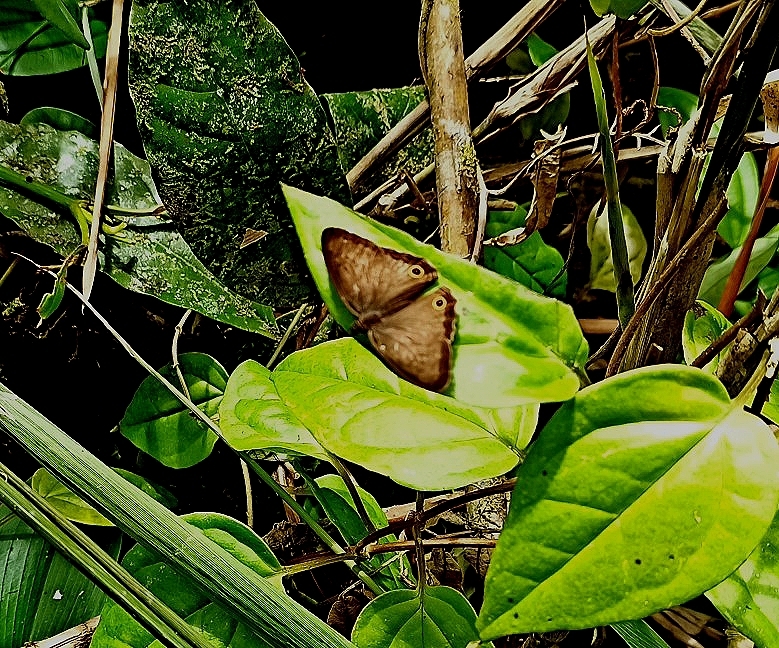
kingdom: Animalia
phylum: Arthropoda
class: Insecta
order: Lepidoptera
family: Nymphalidae
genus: Graphita
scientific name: Graphita griphe
